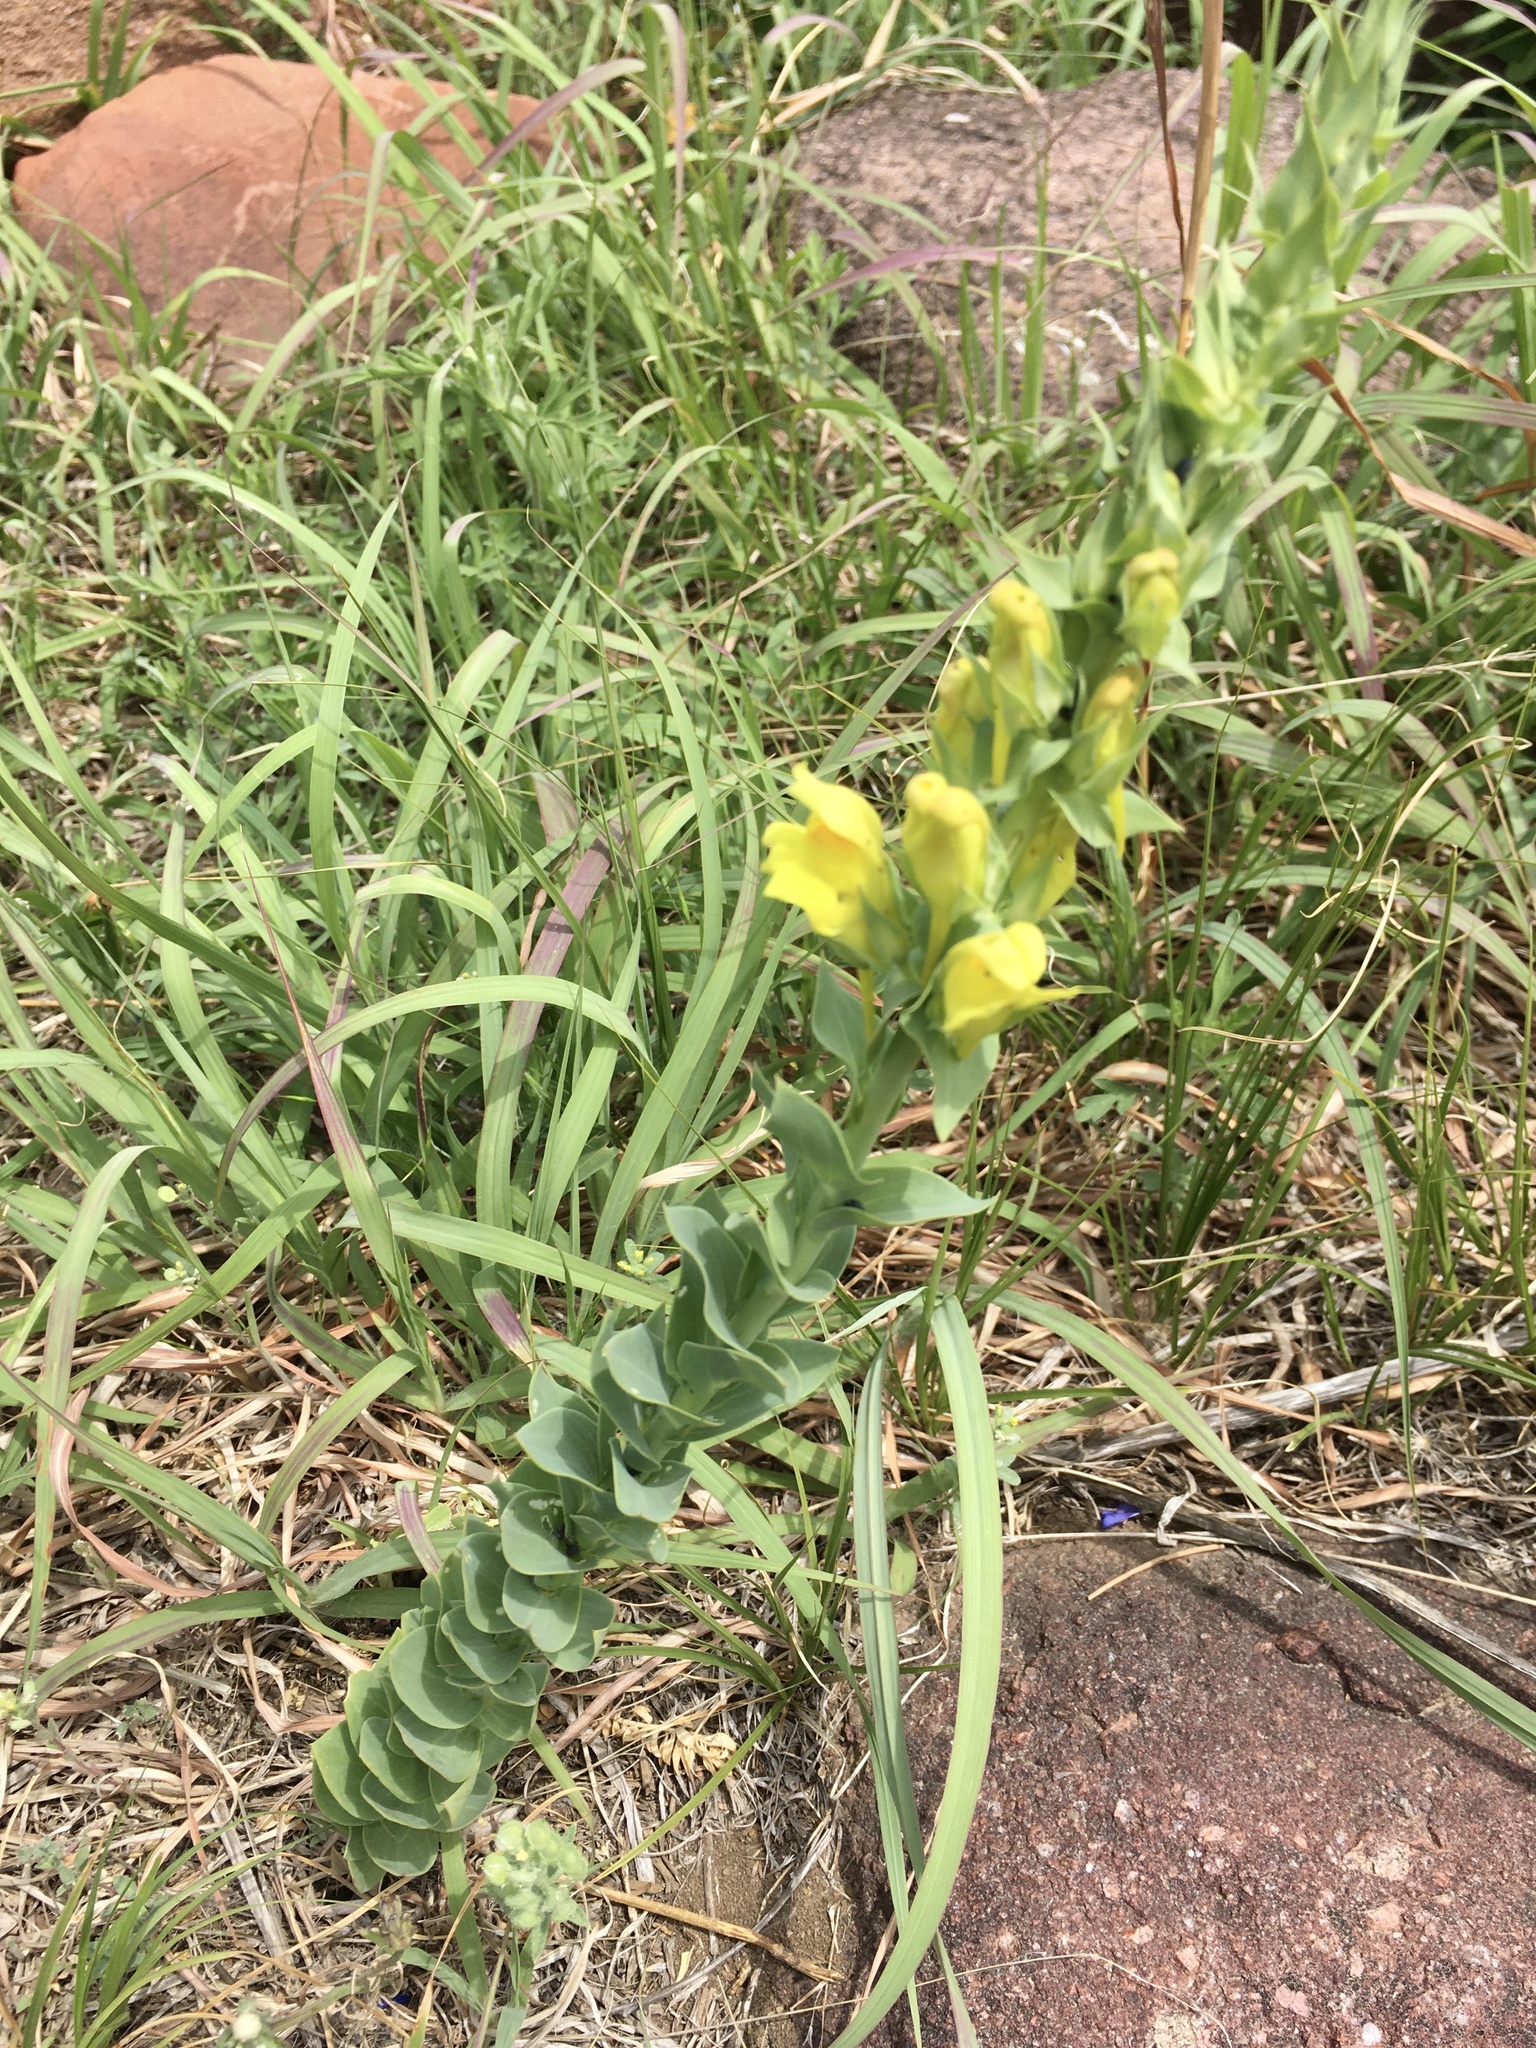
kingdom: Plantae
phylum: Tracheophyta
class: Magnoliopsida
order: Lamiales
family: Plantaginaceae
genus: Linaria
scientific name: Linaria dalmatica
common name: Dalmatian toadflax
